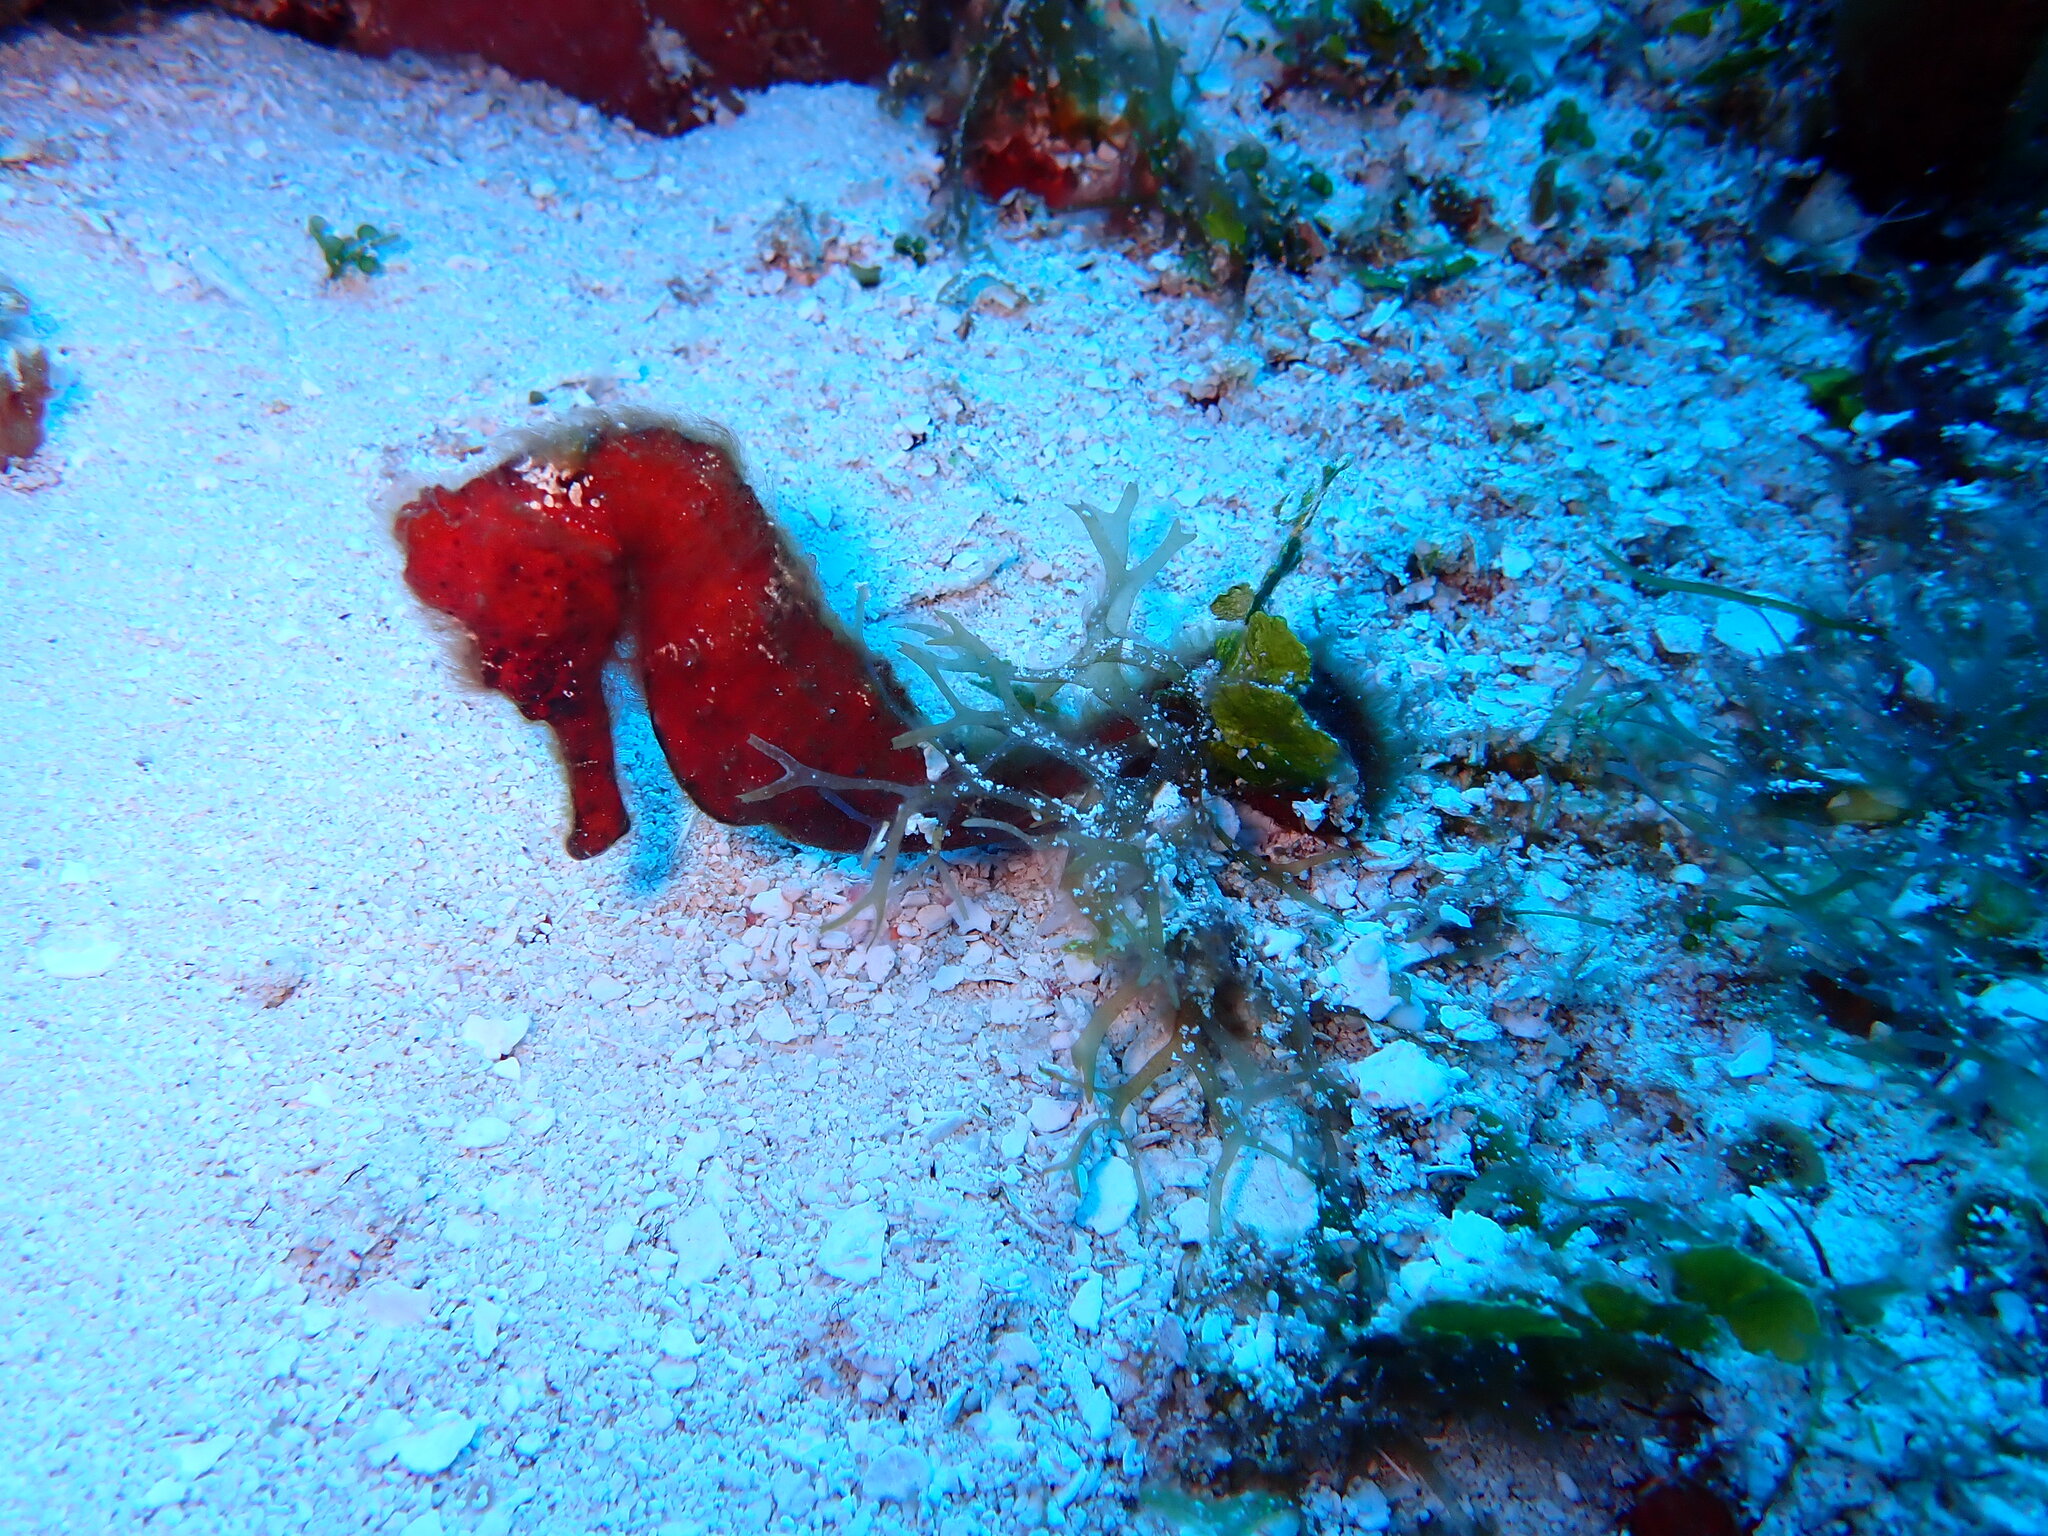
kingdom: Animalia
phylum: Chordata
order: Syngnathiformes
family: Syngnathidae
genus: Hippocampus
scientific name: Hippocampus reidi
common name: Slender seahorse
